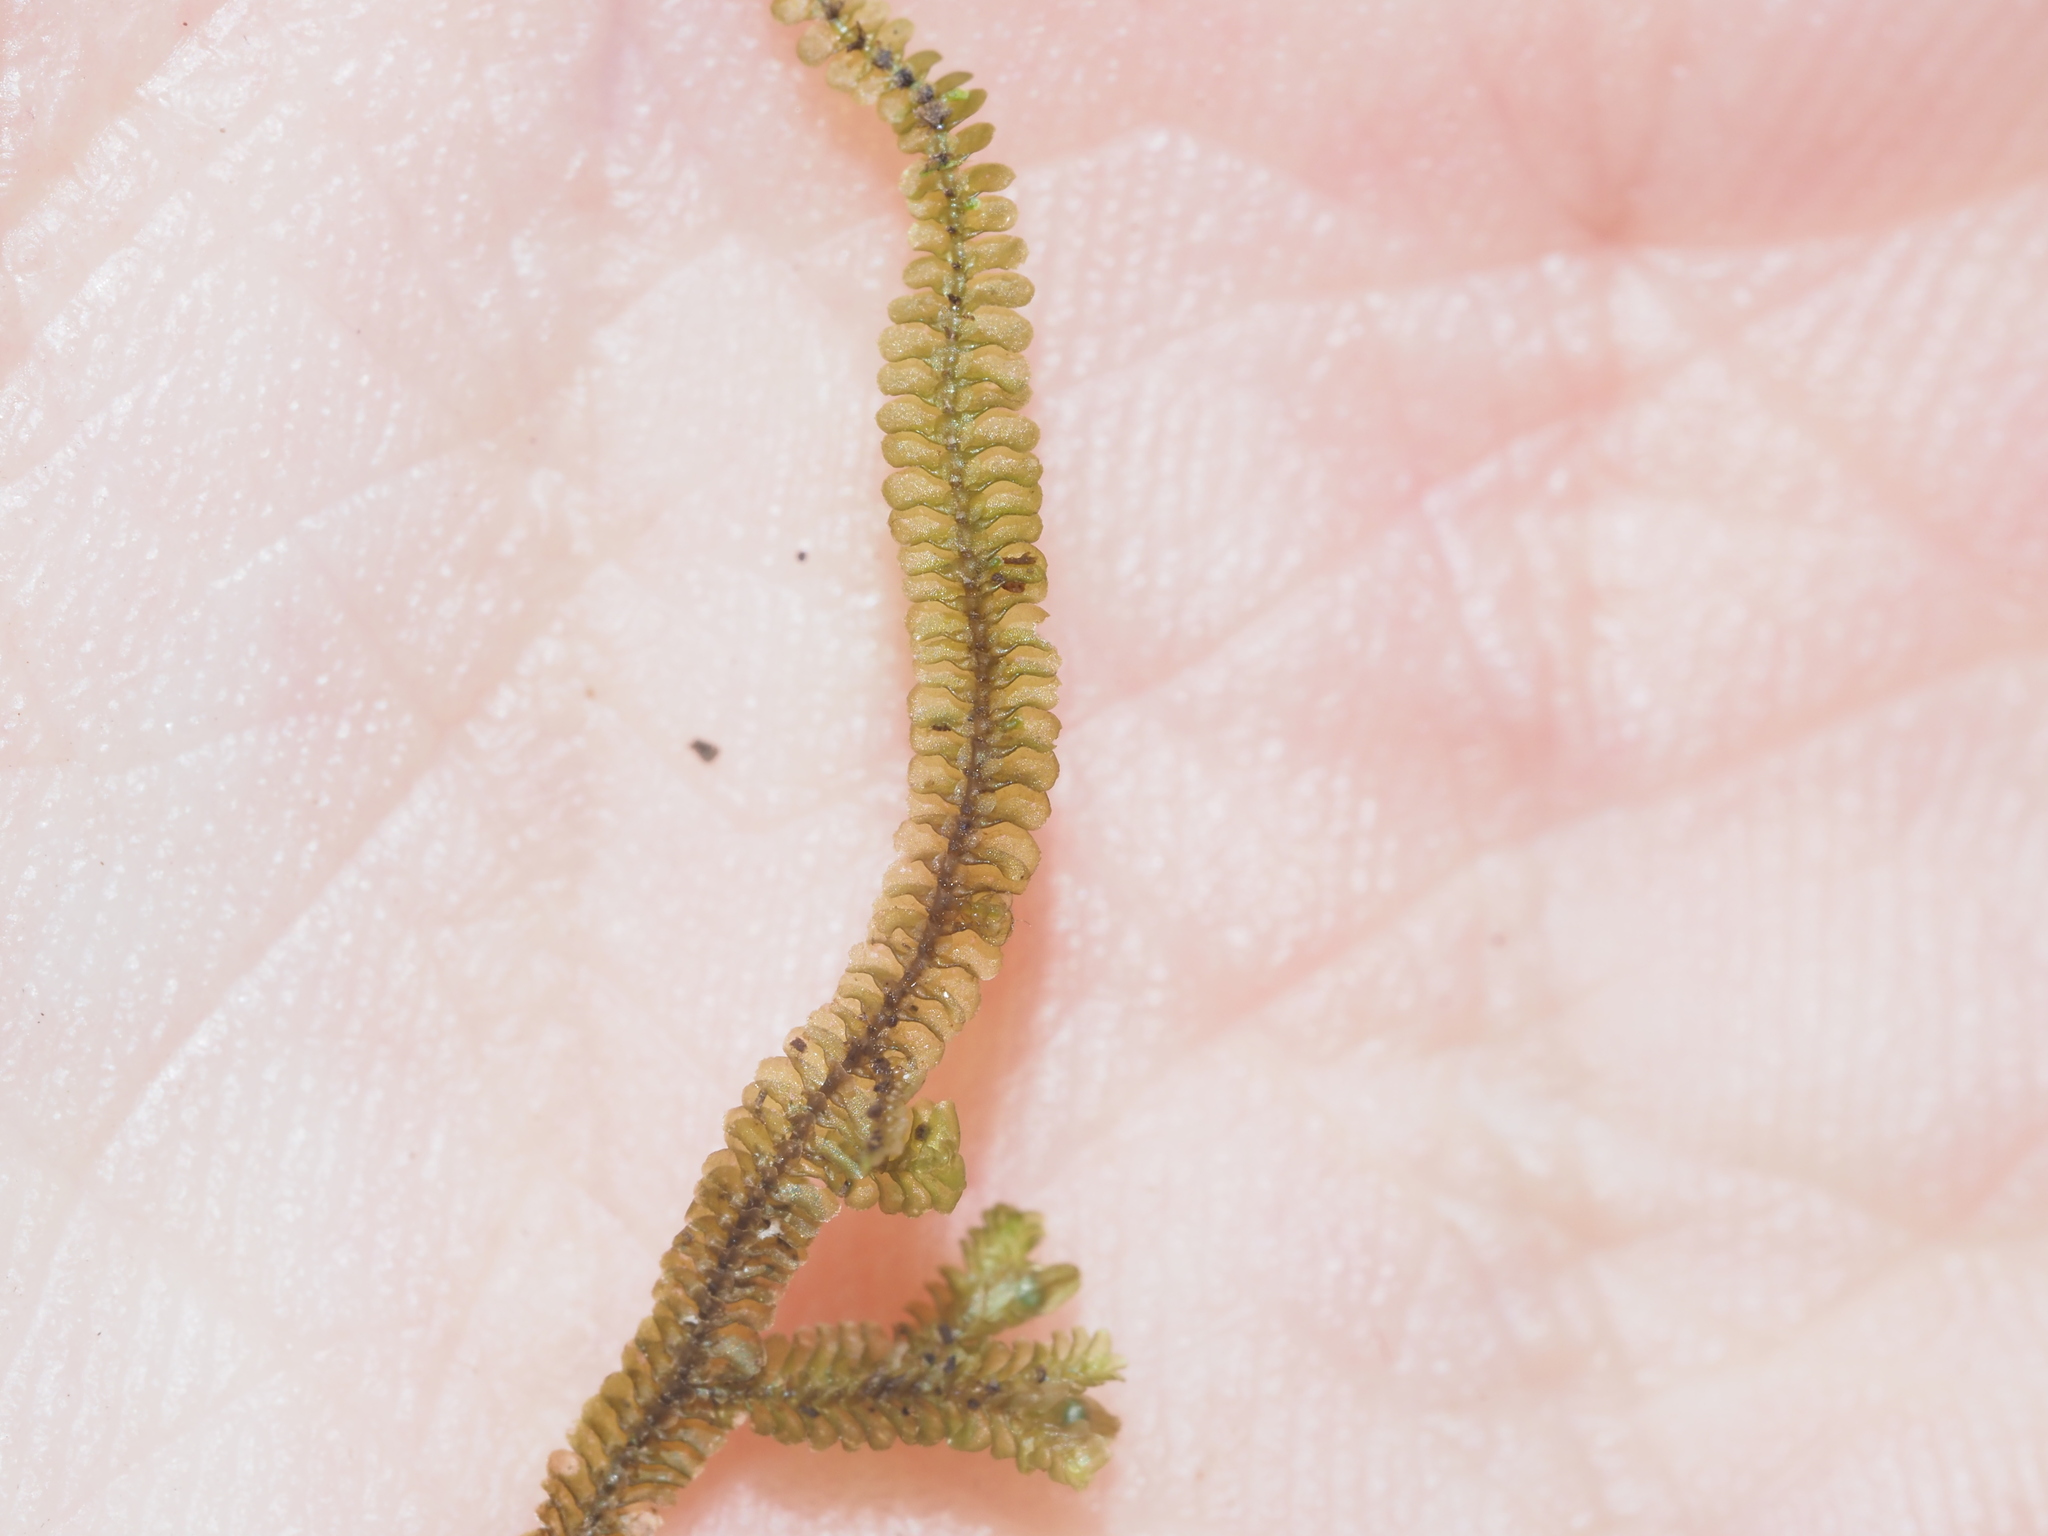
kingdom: Plantae
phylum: Marchantiophyta
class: Jungermanniopsida
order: Jungermanniales
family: Calypogeiaceae
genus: Calypogeia
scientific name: Calypogeia cuspidata
